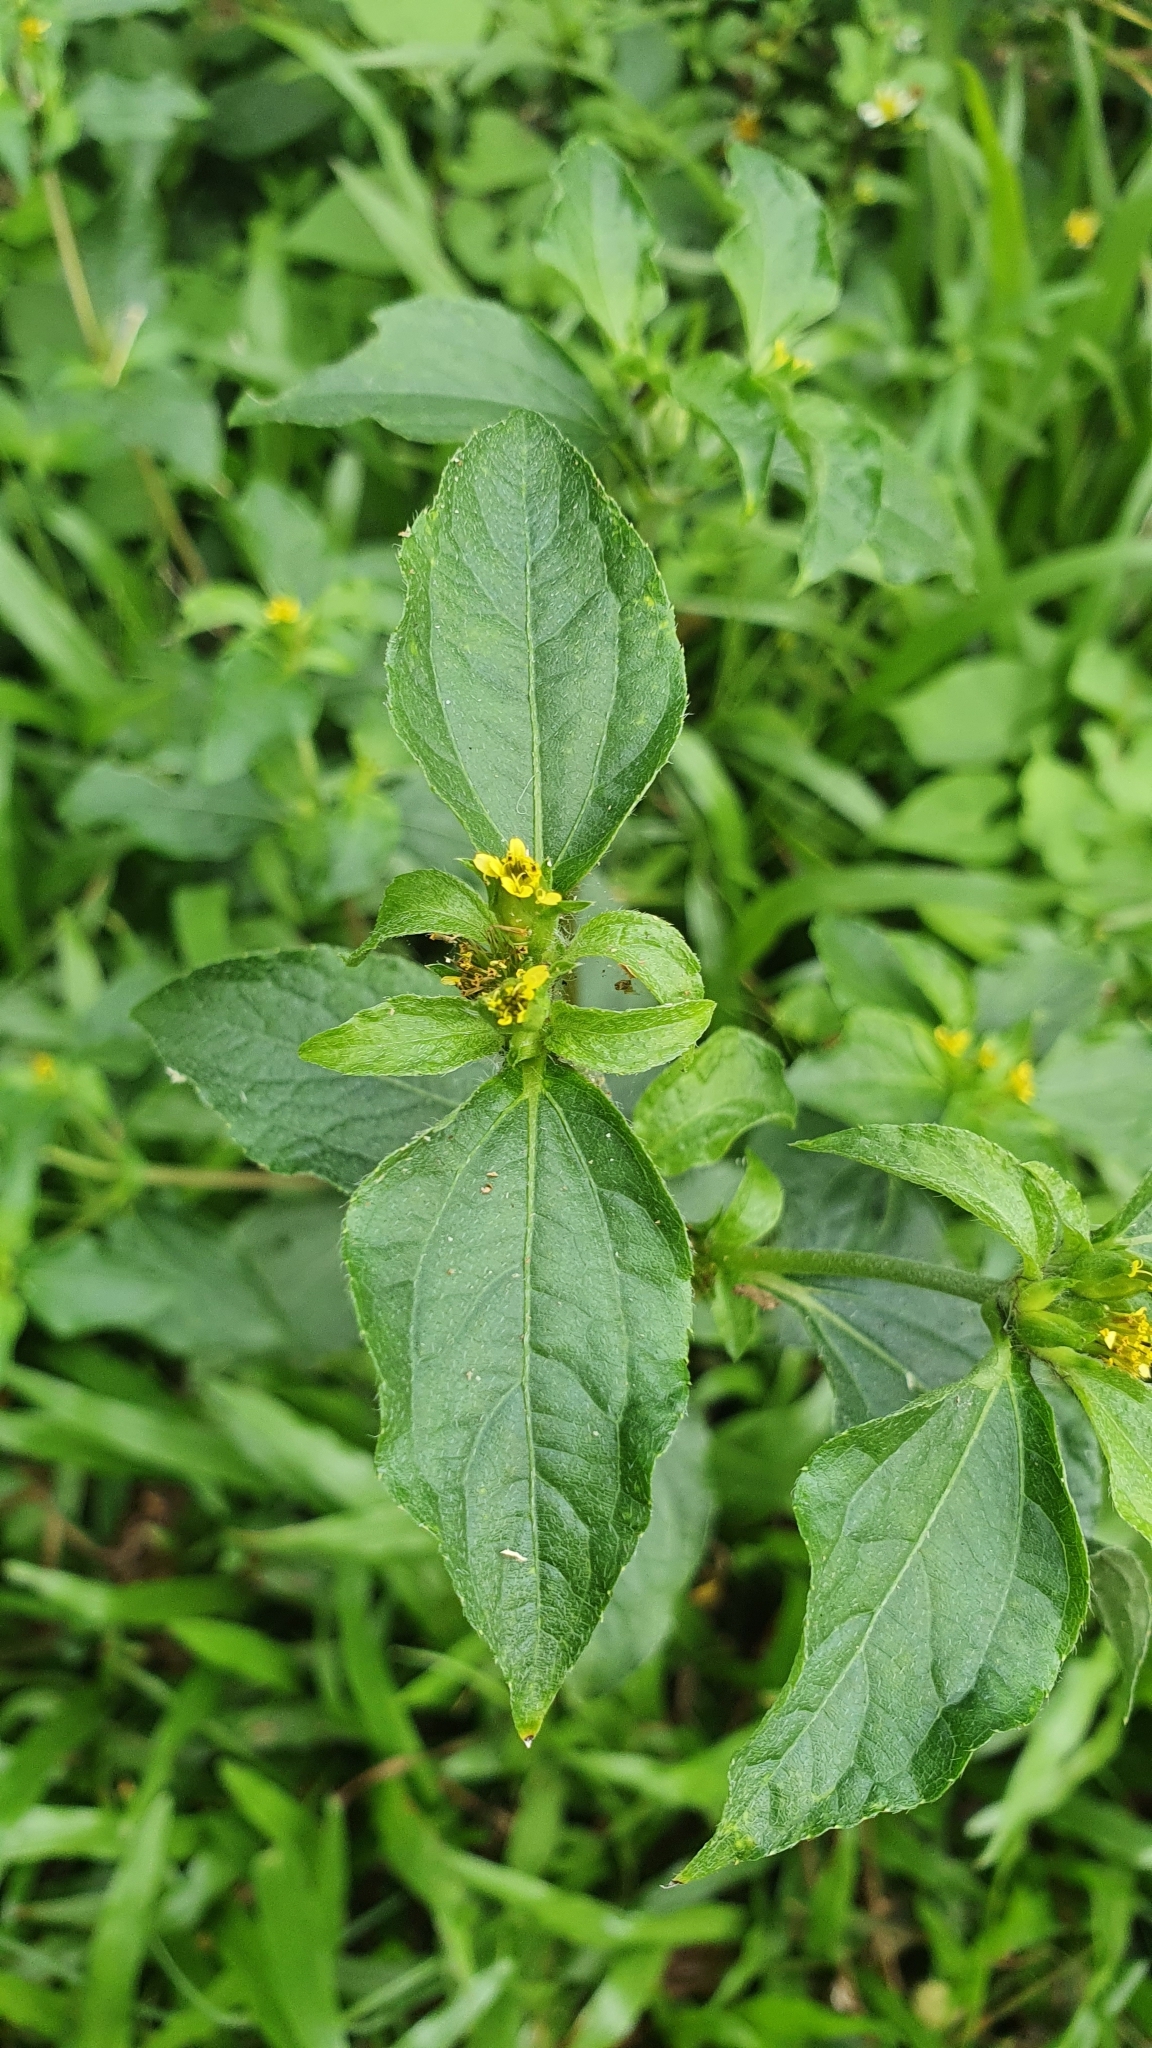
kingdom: Plantae
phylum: Tracheophyta
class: Magnoliopsida
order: Asterales
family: Asteraceae
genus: Synedrella
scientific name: Synedrella nodiflora
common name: Nodeweed
